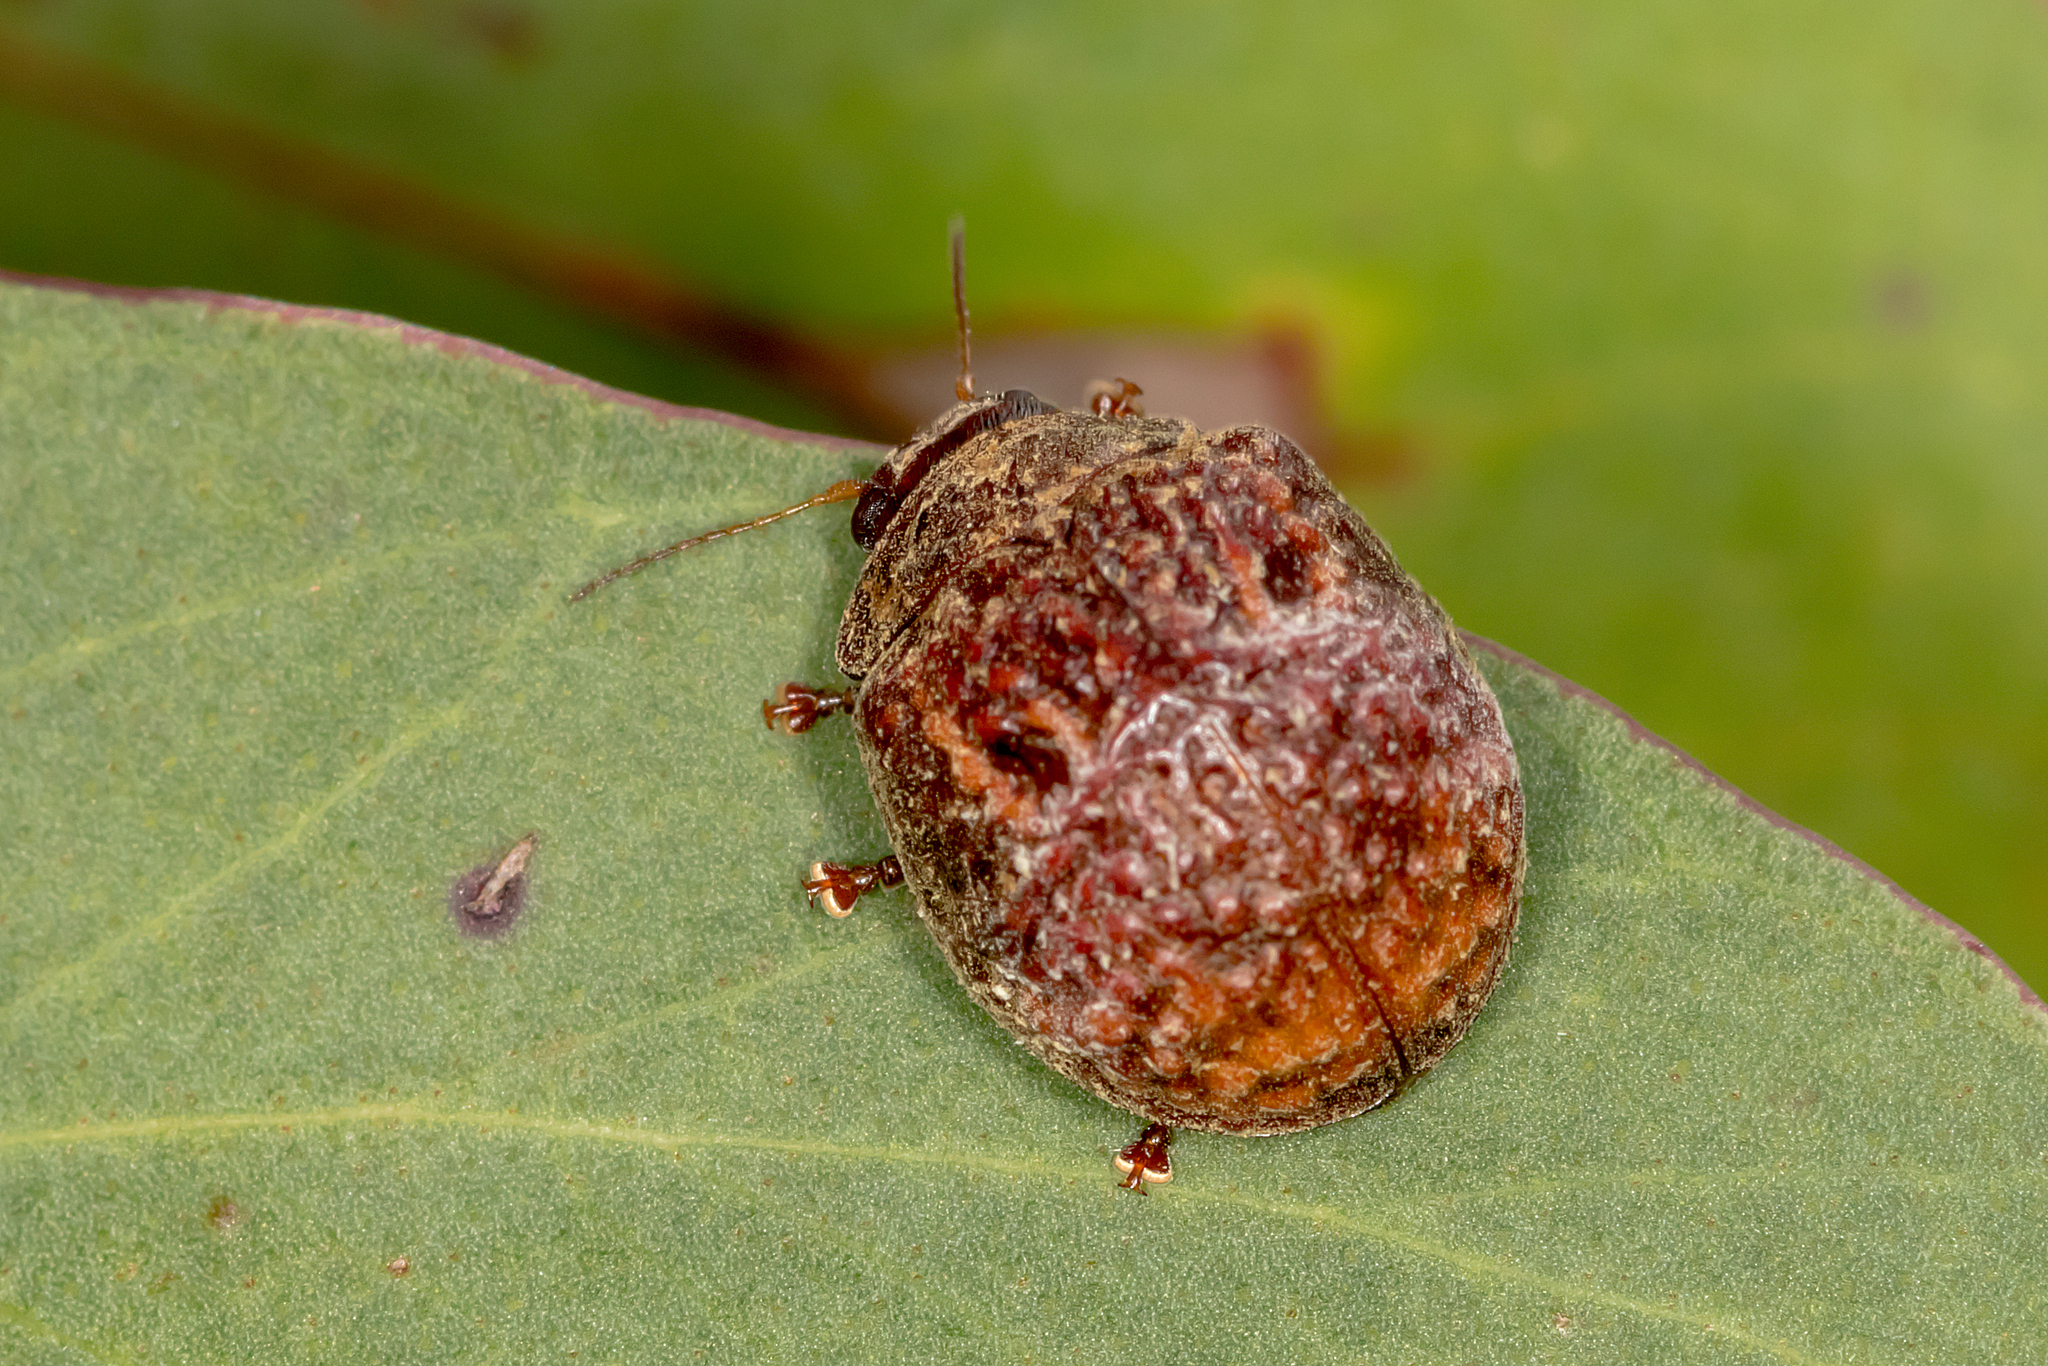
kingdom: Animalia
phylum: Arthropoda
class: Insecta
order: Coleoptera
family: Chrysomelidae
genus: Trachymela
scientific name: Trachymela
